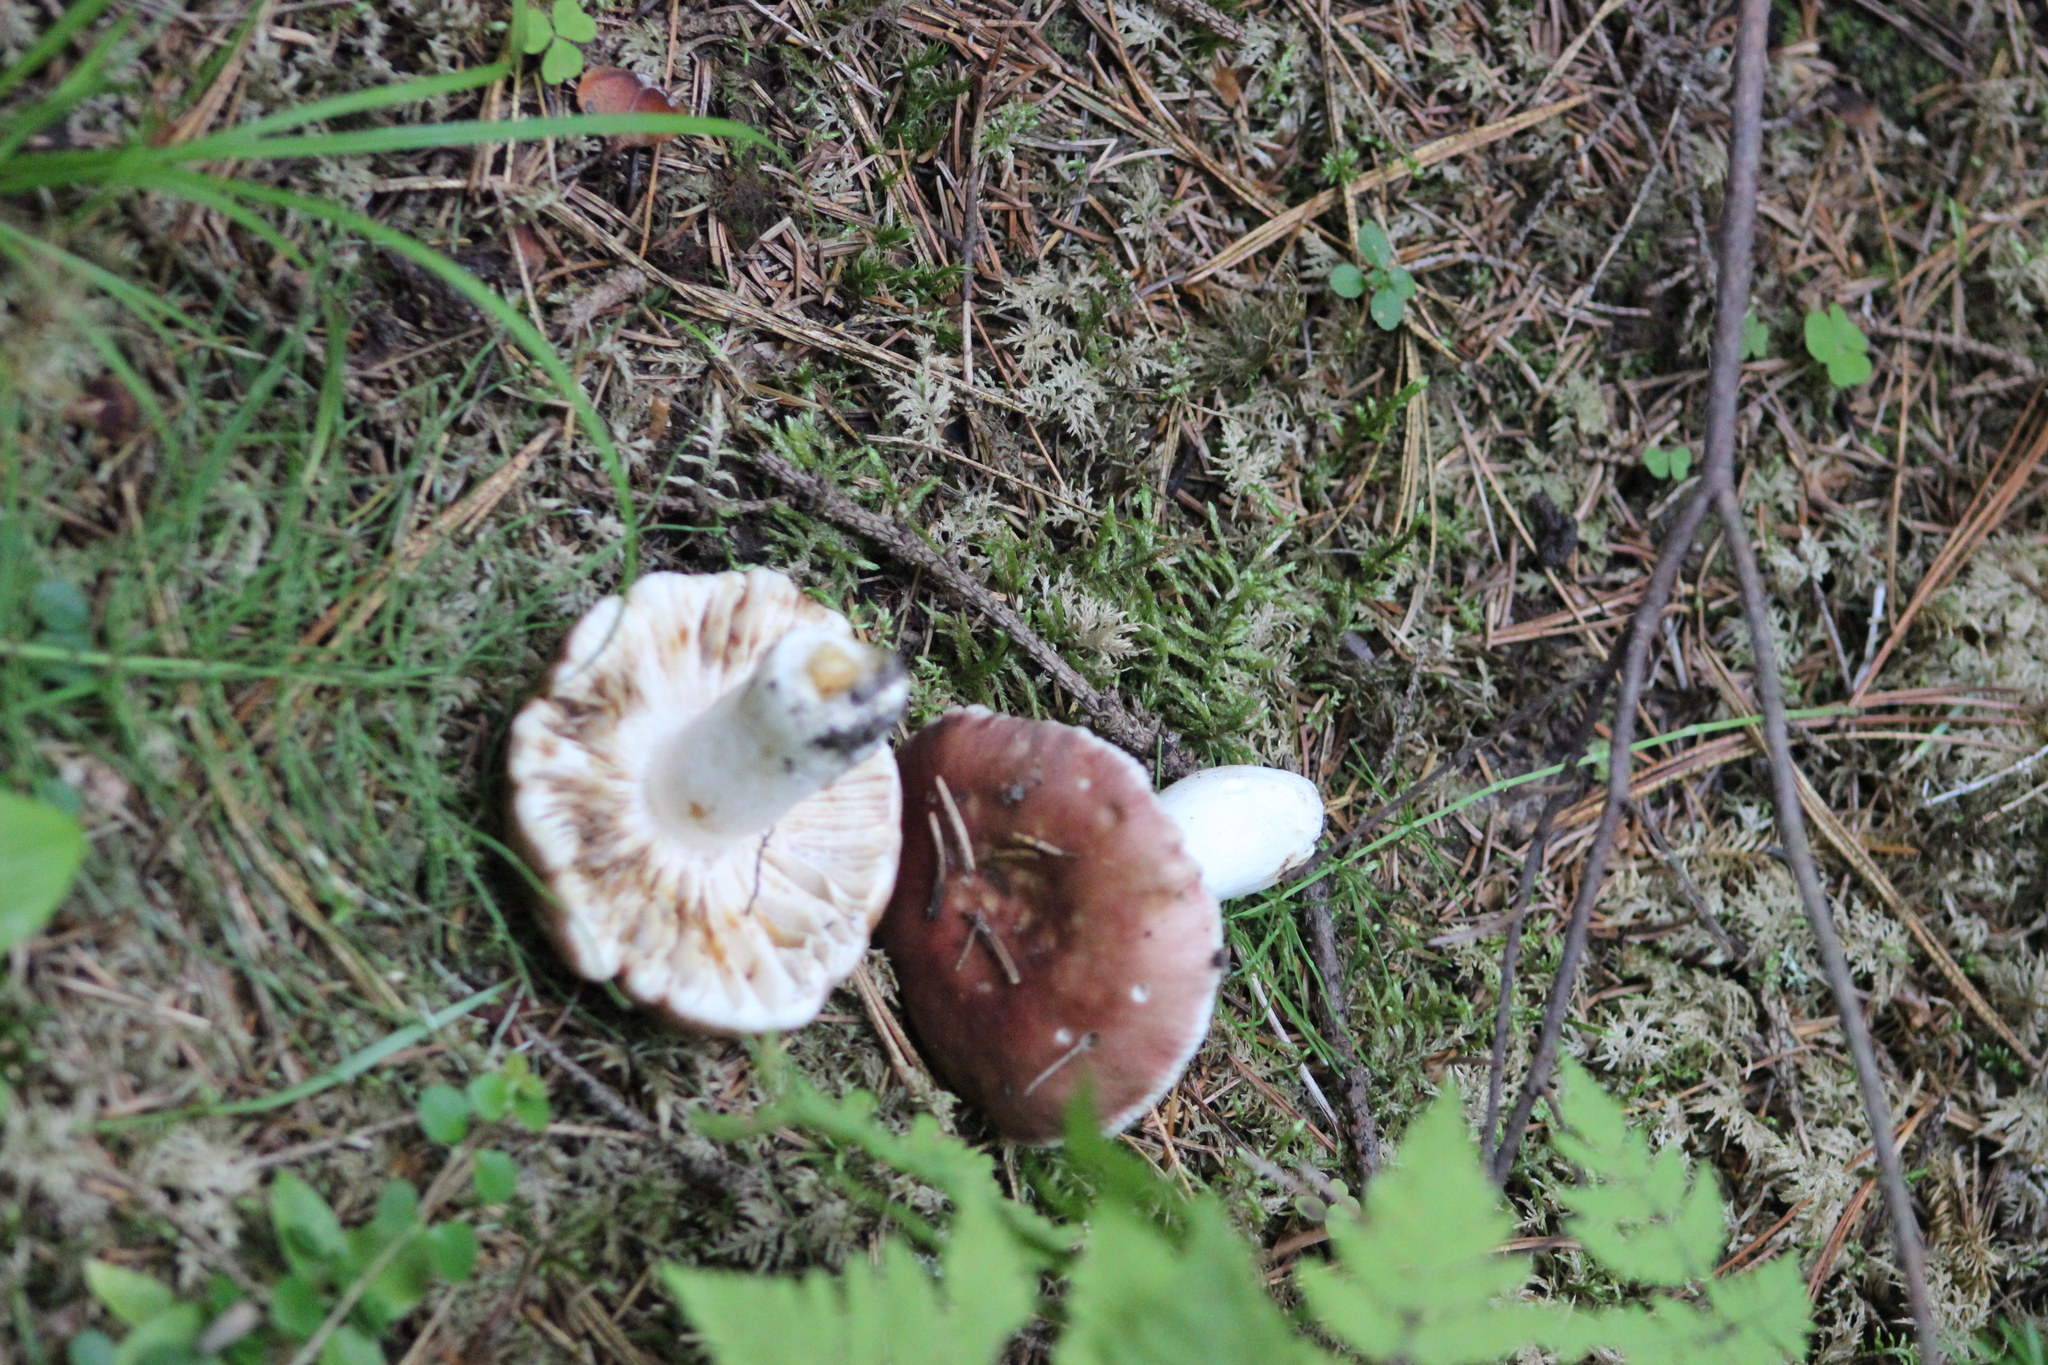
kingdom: Fungi
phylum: Basidiomycota
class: Agaricomycetes
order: Russulales
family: Russulaceae
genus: Russula
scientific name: Russula vesca
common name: Bare-toothed russula
